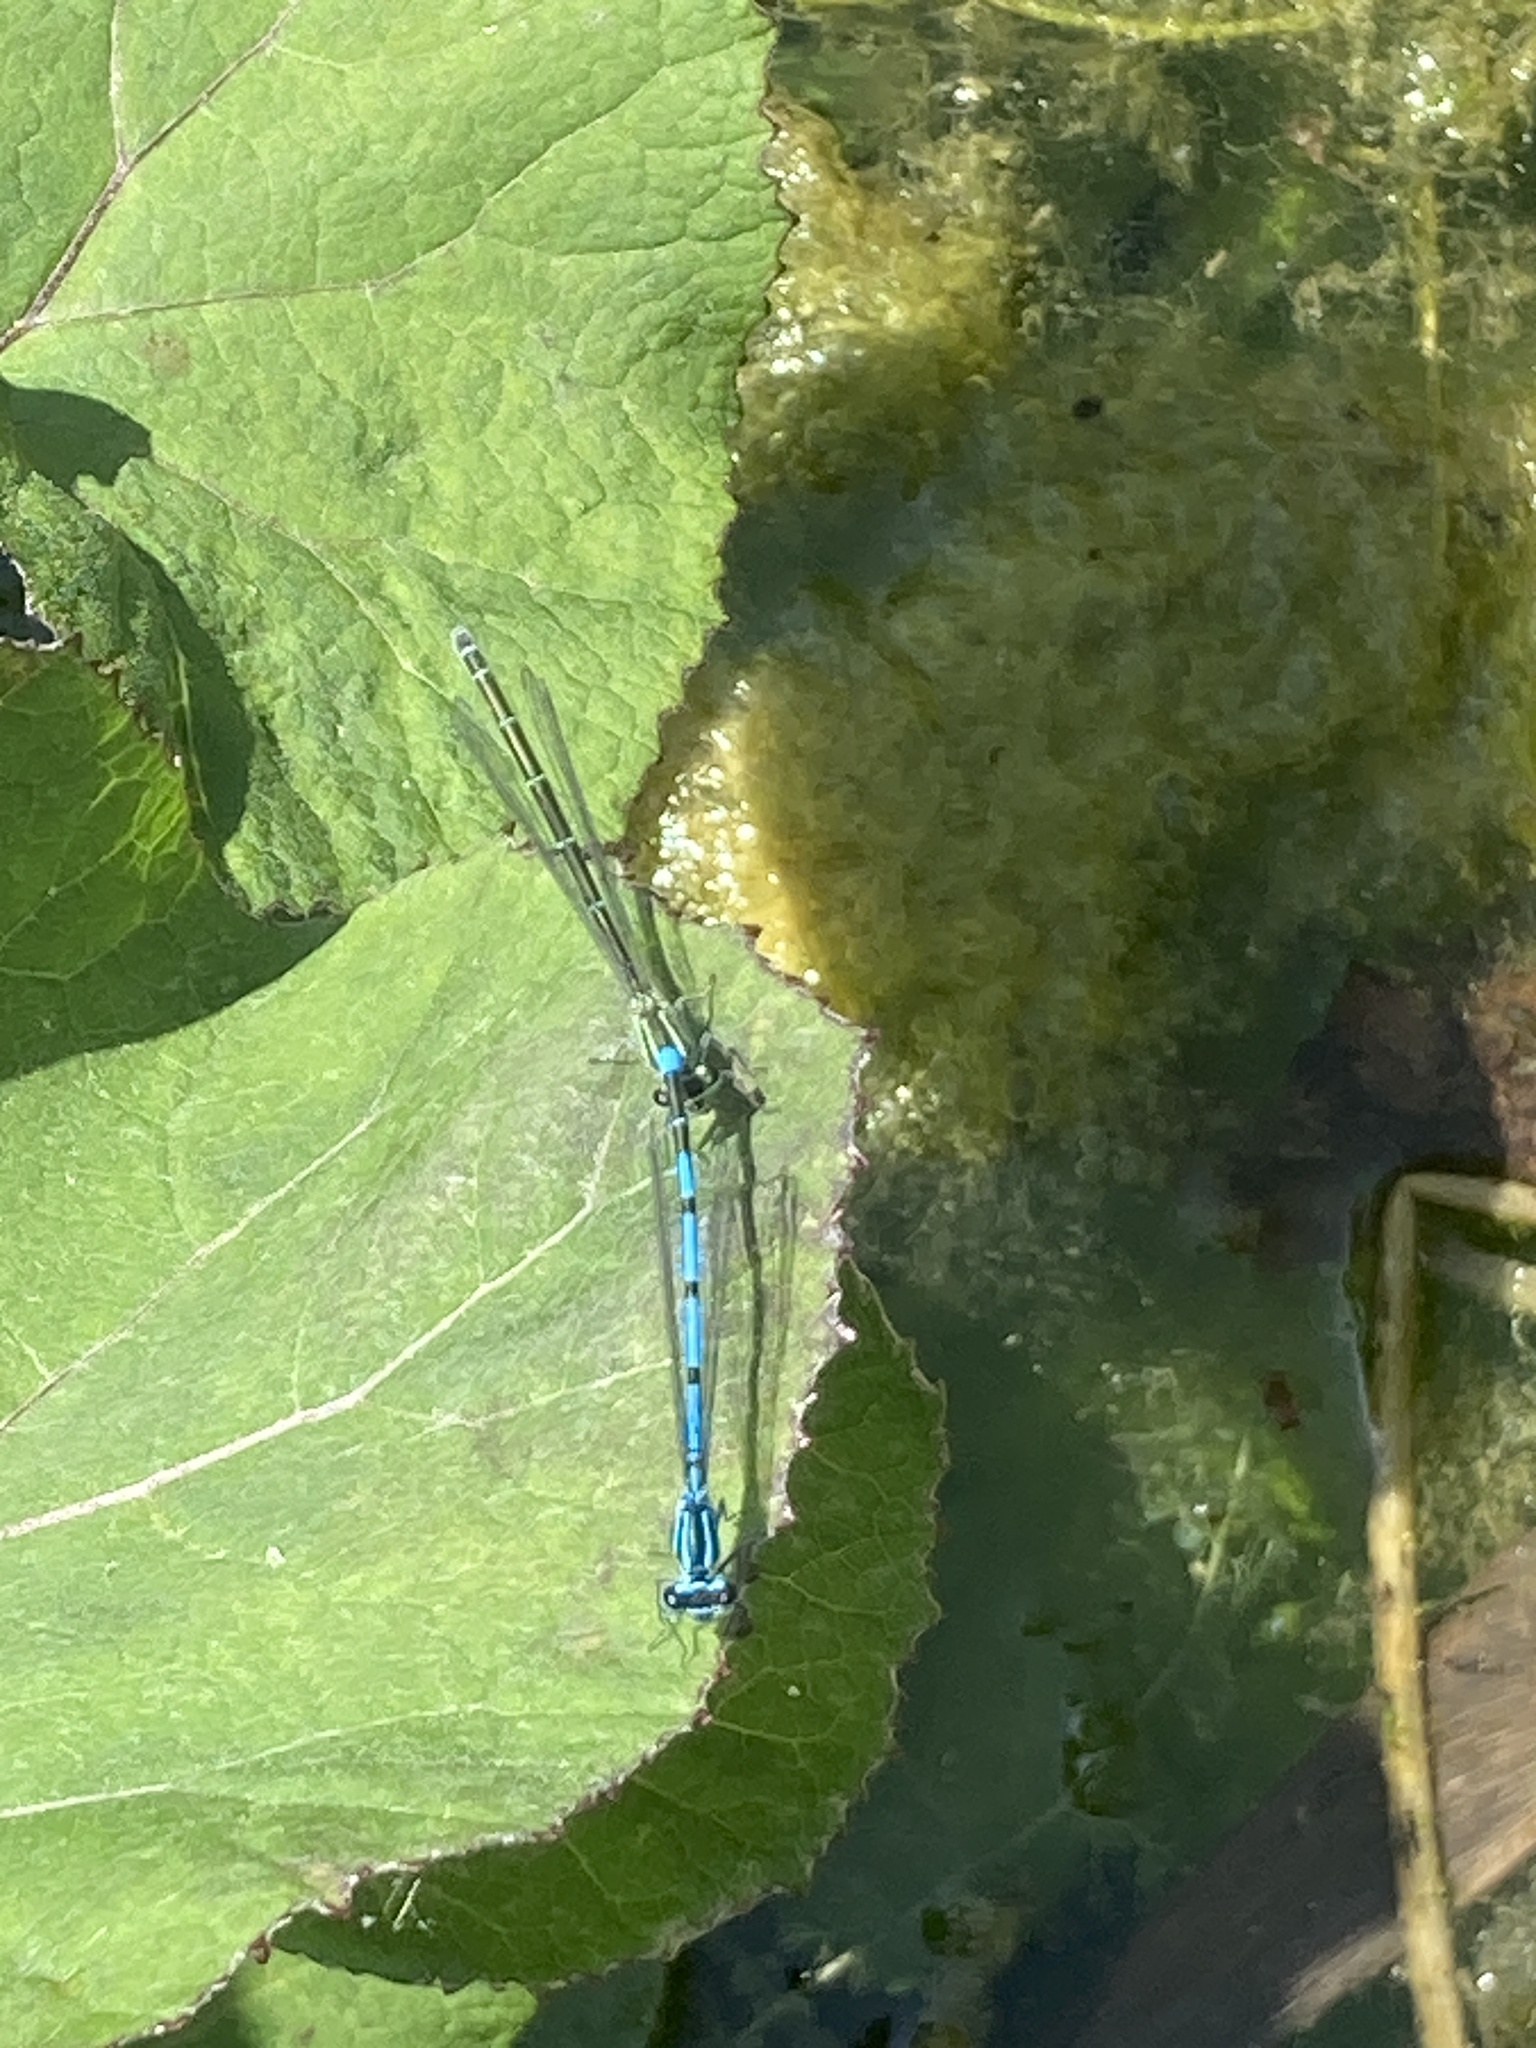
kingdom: Animalia
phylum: Arthropoda
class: Insecta
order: Odonata
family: Coenagrionidae
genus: Coenagrion
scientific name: Coenagrion puella
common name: Azure damselfly
